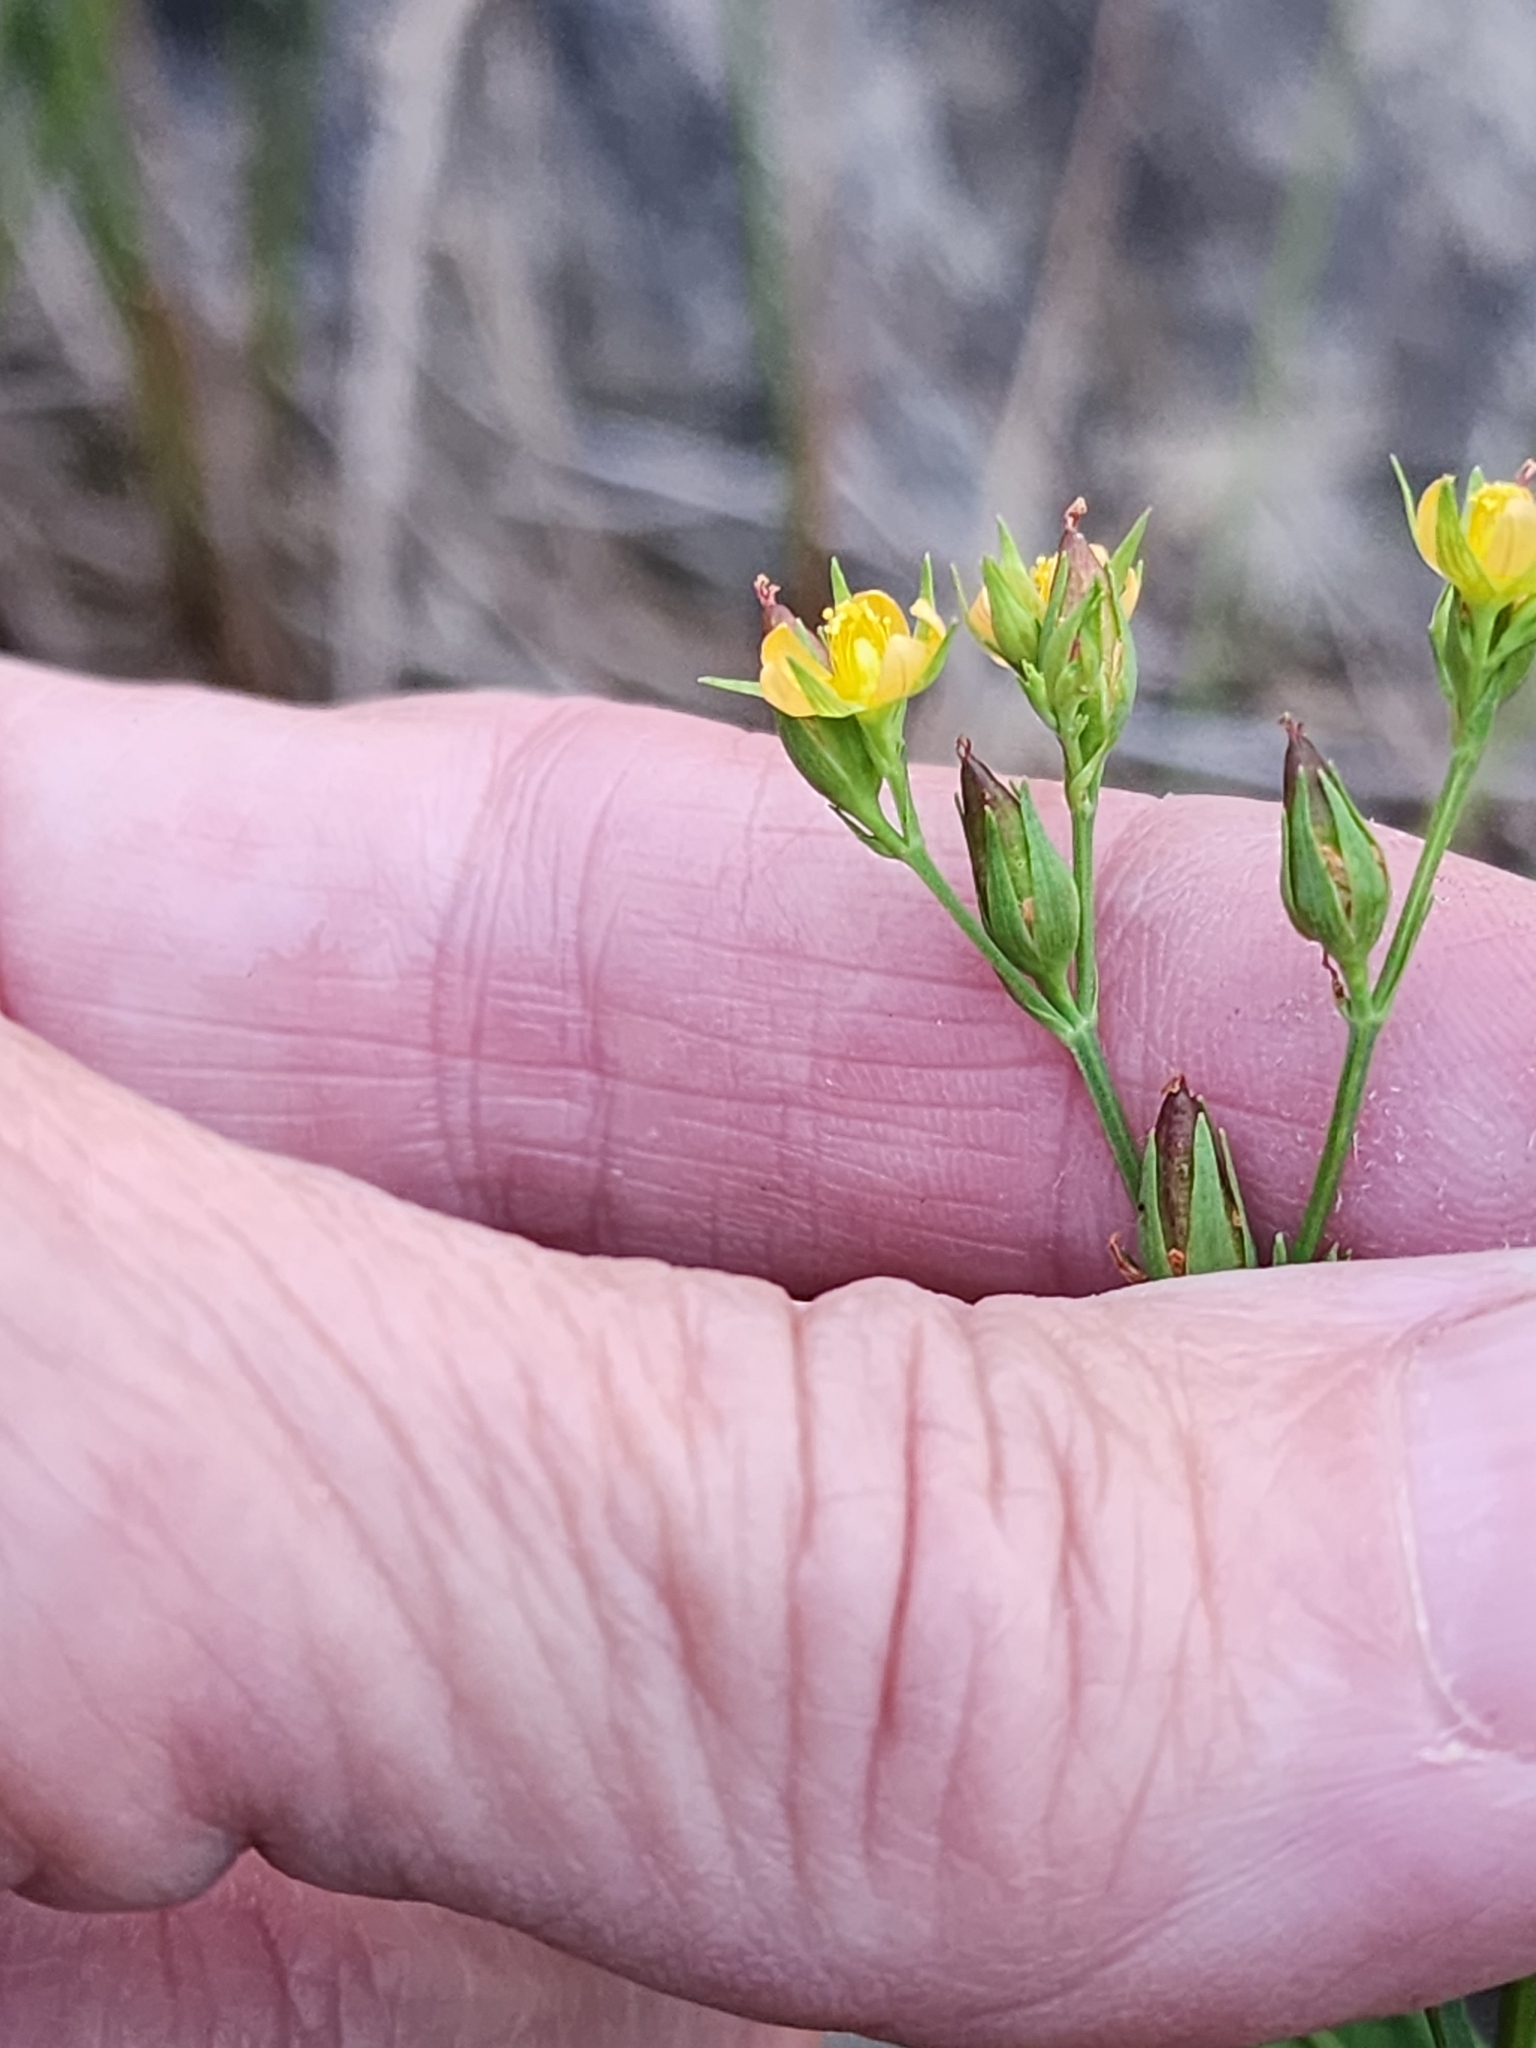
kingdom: Plantae
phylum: Tracheophyta
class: Magnoliopsida
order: Malpighiales
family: Hypericaceae
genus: Hypericum
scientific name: Hypericum majus
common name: Greater canadian st. john's-wort
